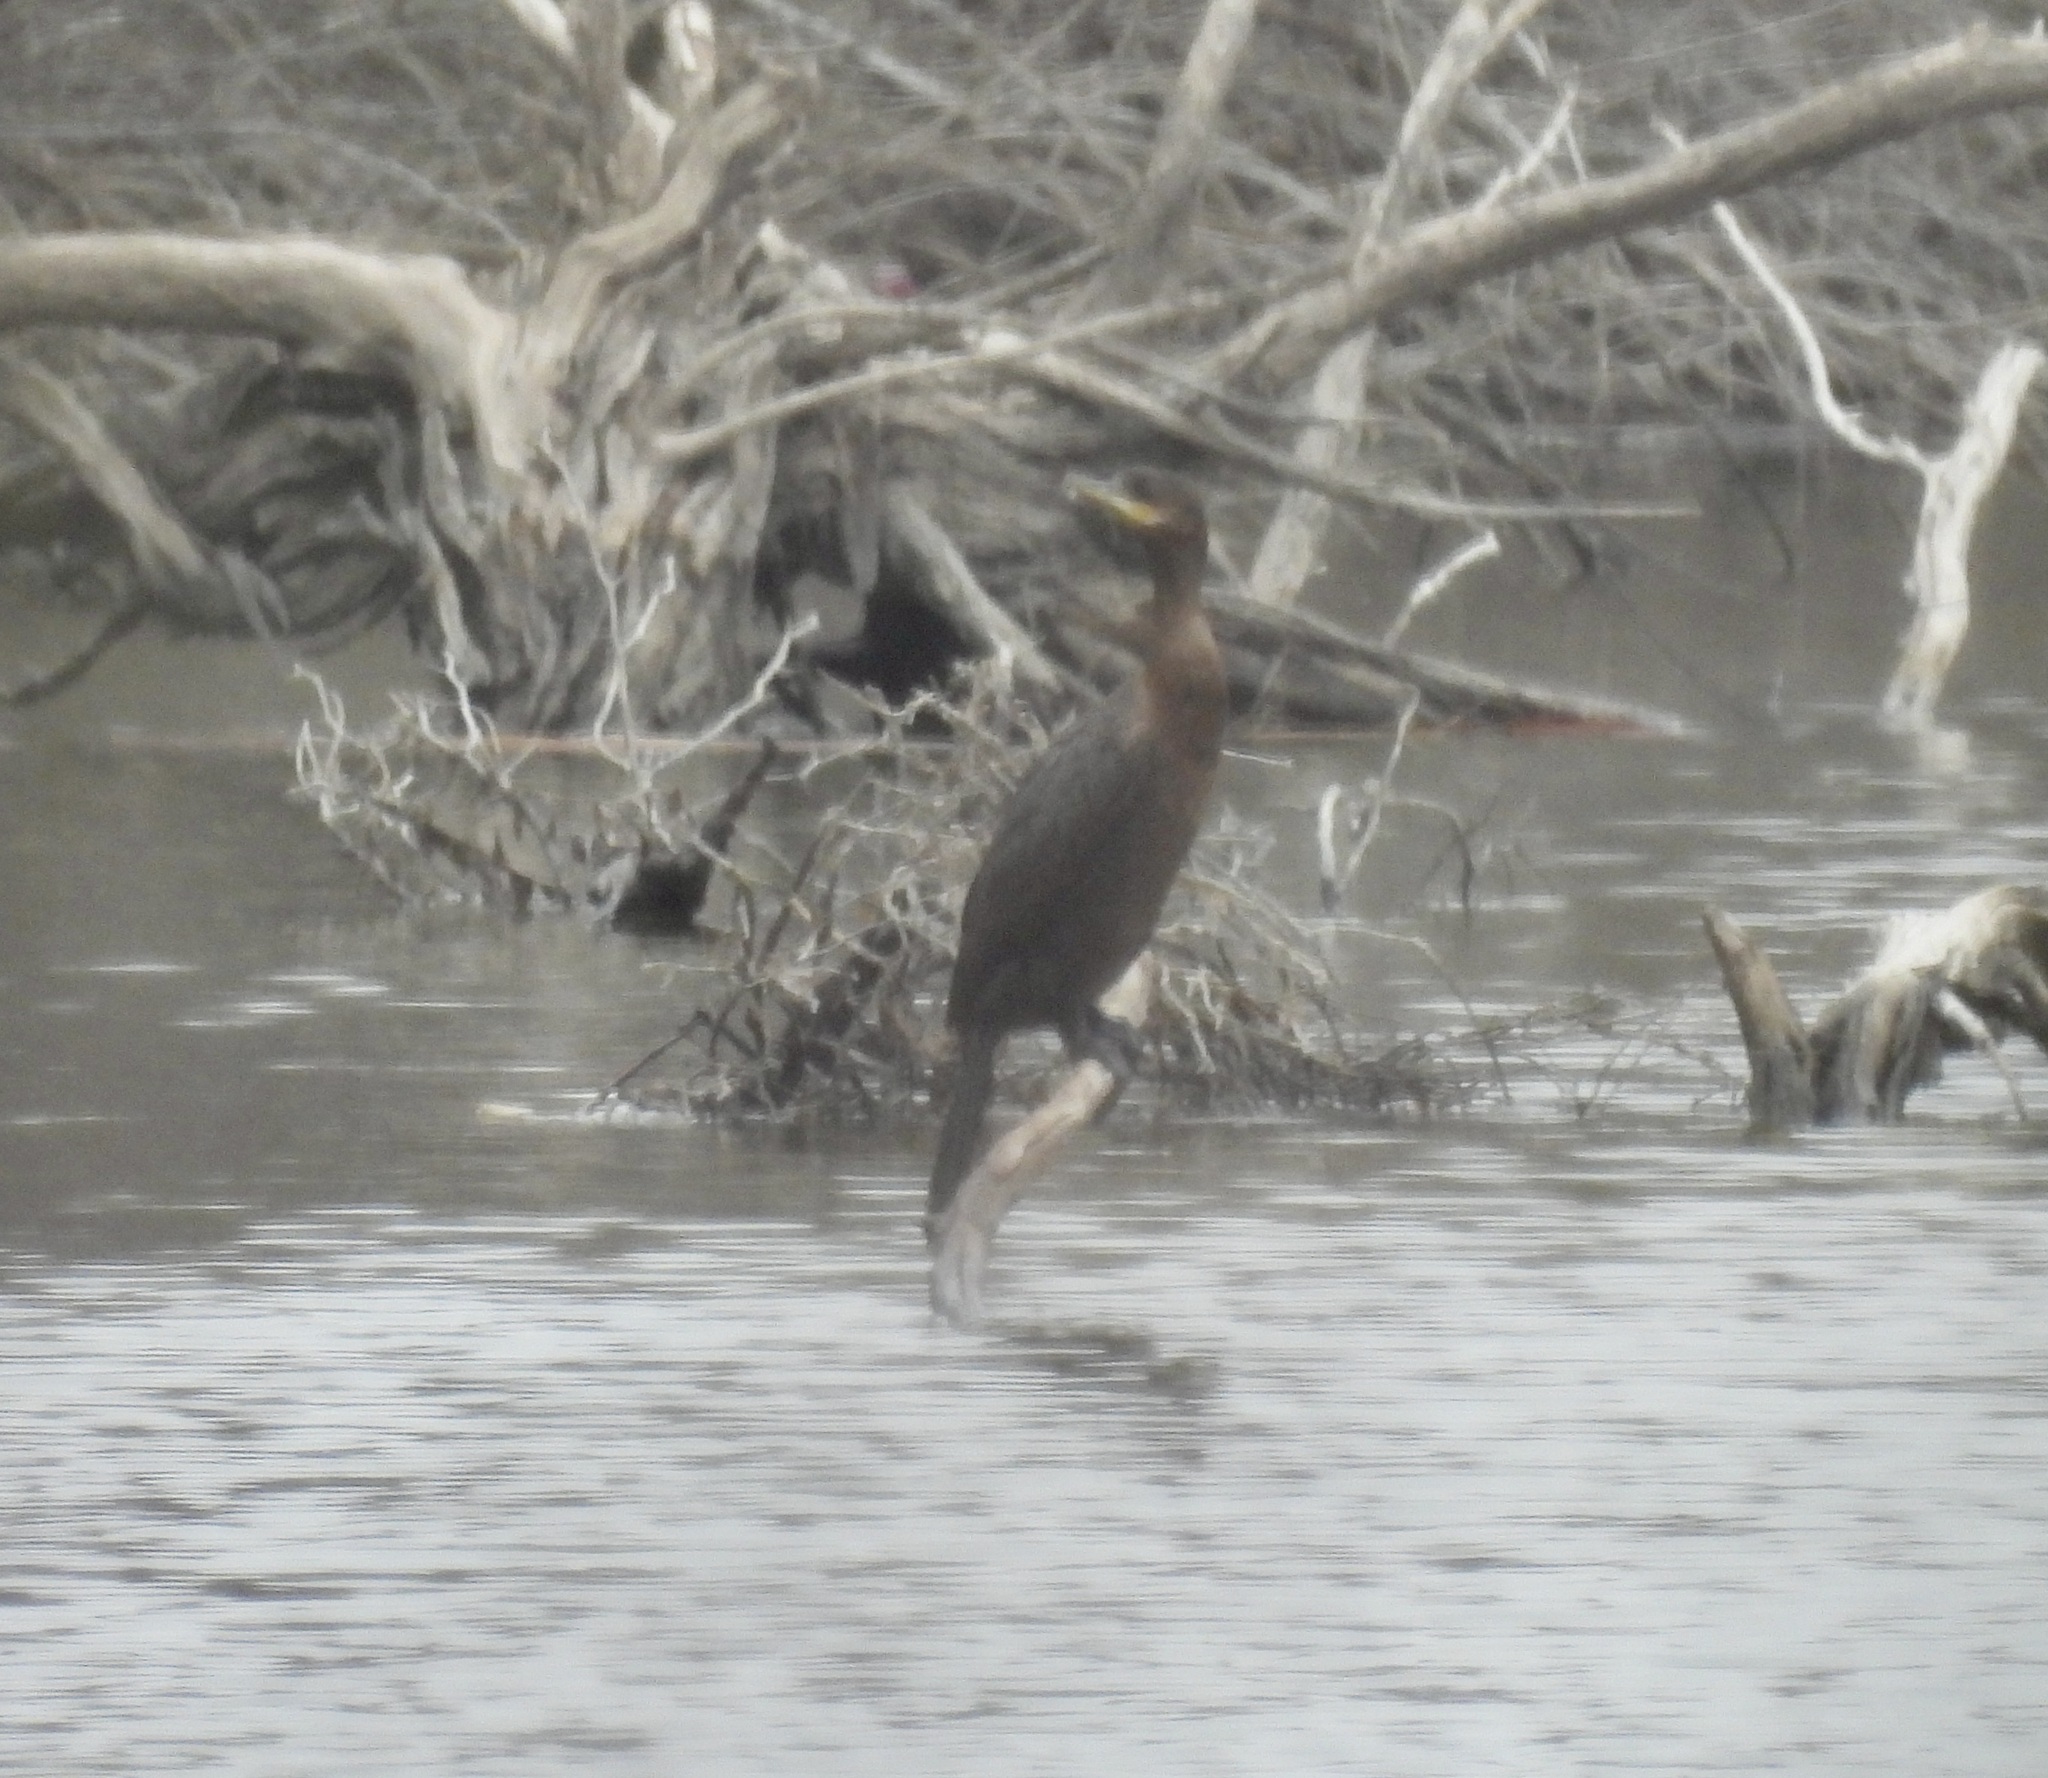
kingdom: Animalia
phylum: Chordata
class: Aves
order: Suliformes
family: Phalacrocoracidae
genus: Phalacrocorax
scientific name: Phalacrocorax brasilianus
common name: Neotropic cormorant
